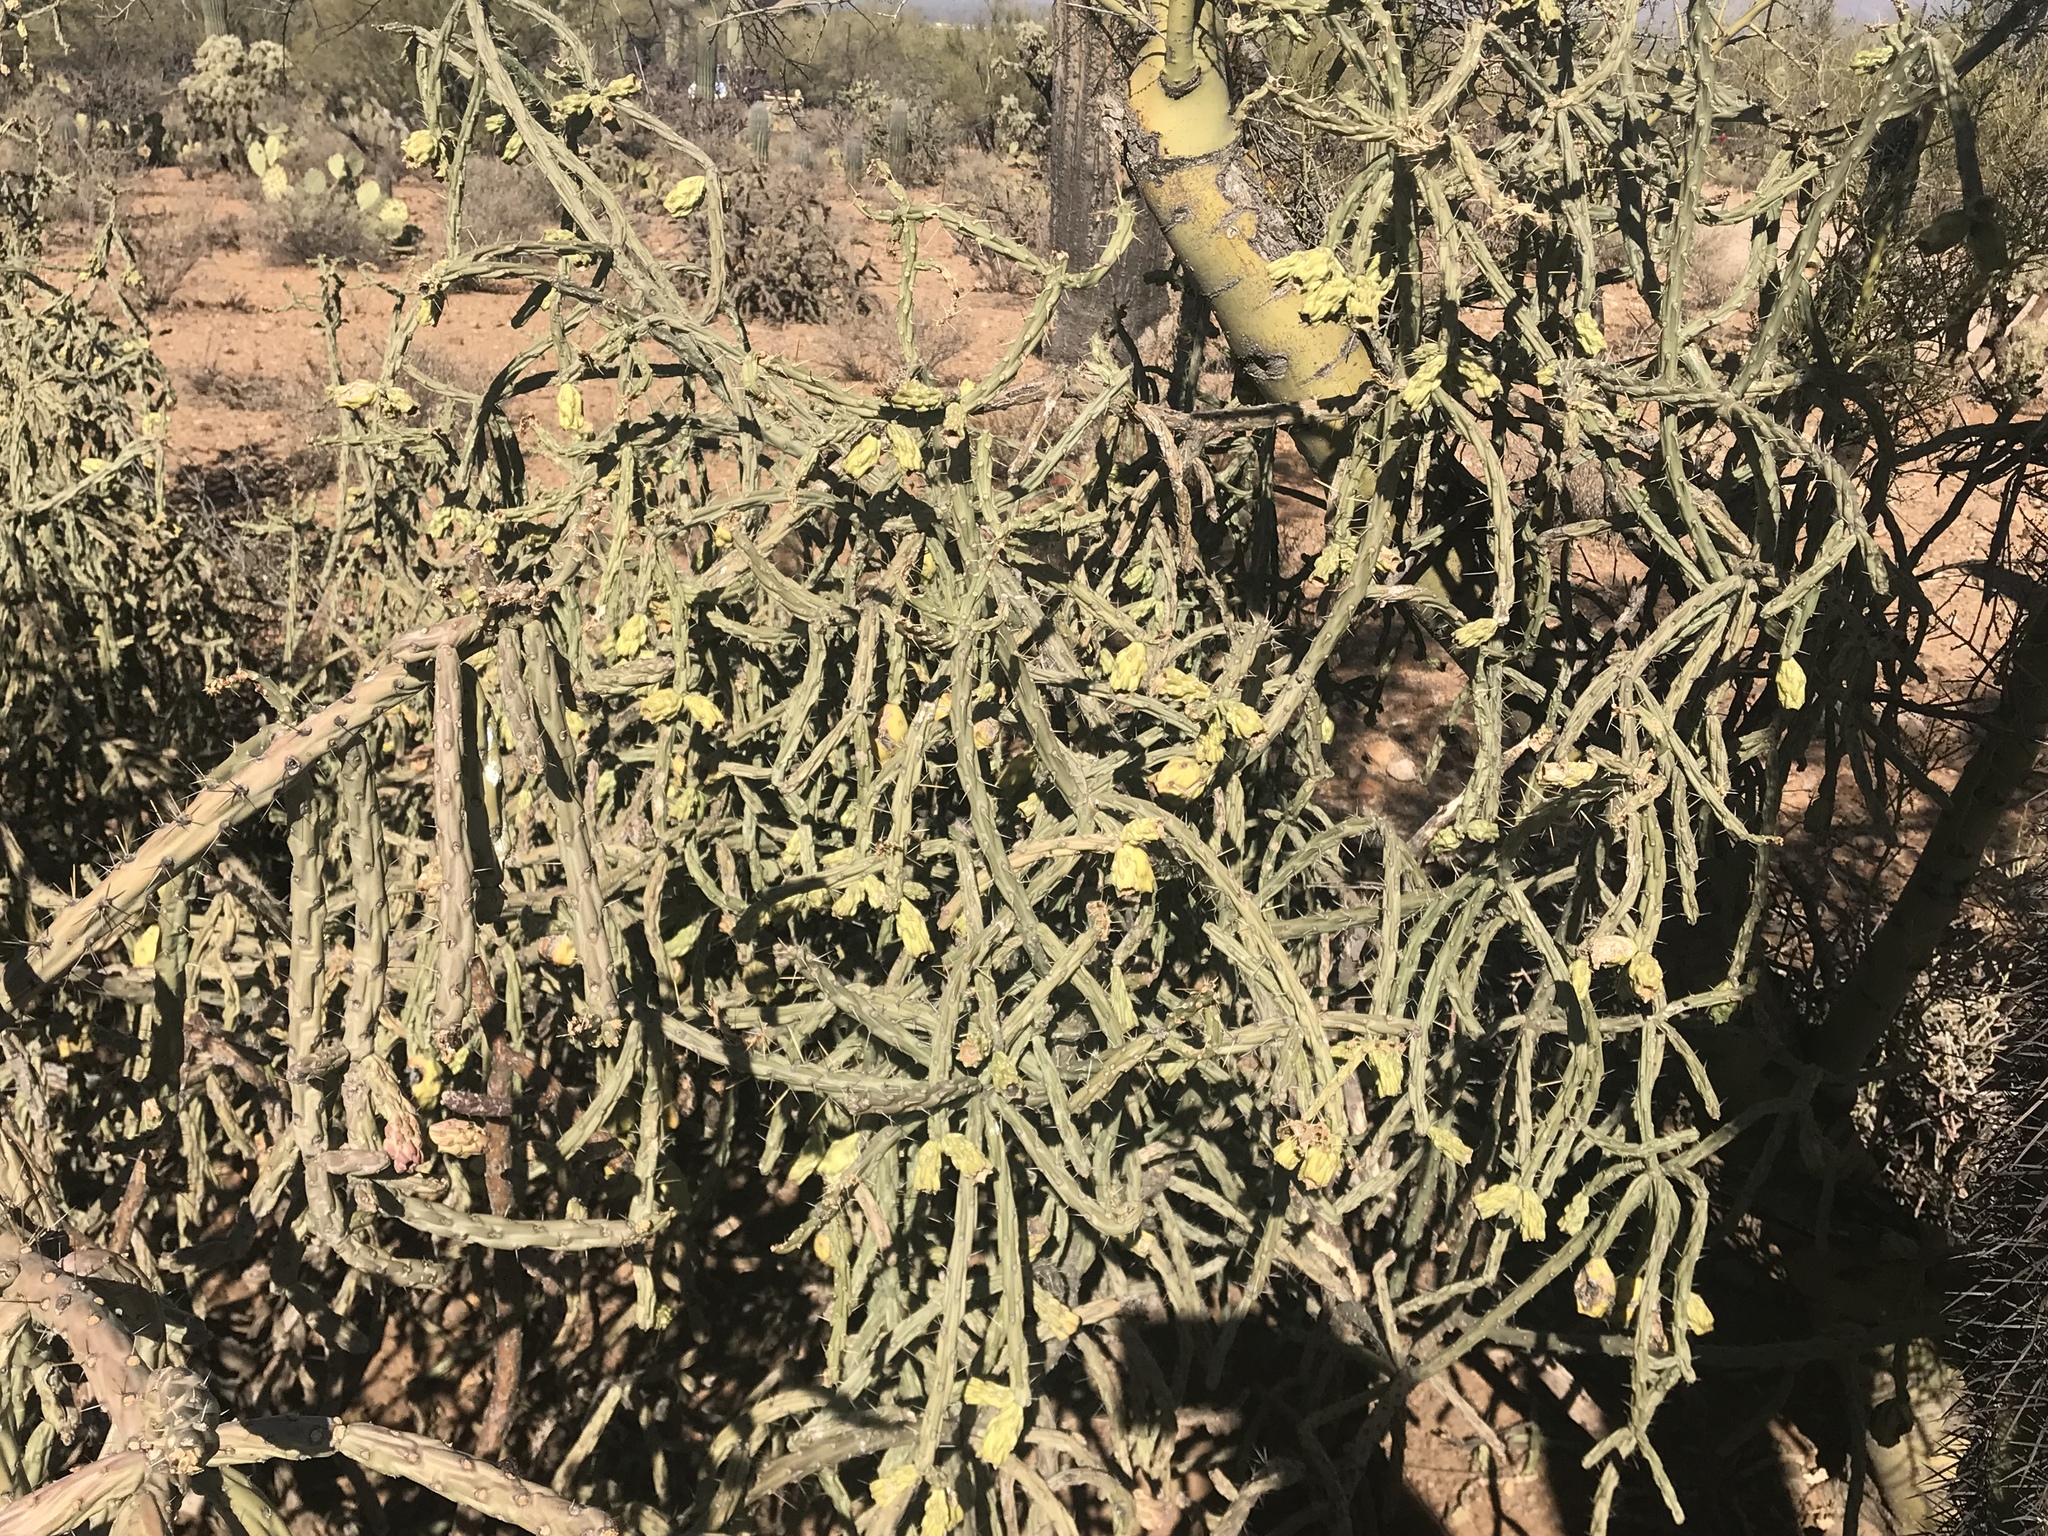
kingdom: Plantae
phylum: Tracheophyta
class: Magnoliopsida
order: Caryophyllales
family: Cactaceae
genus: Cylindropuntia
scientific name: Cylindropuntia neoarbuscula
